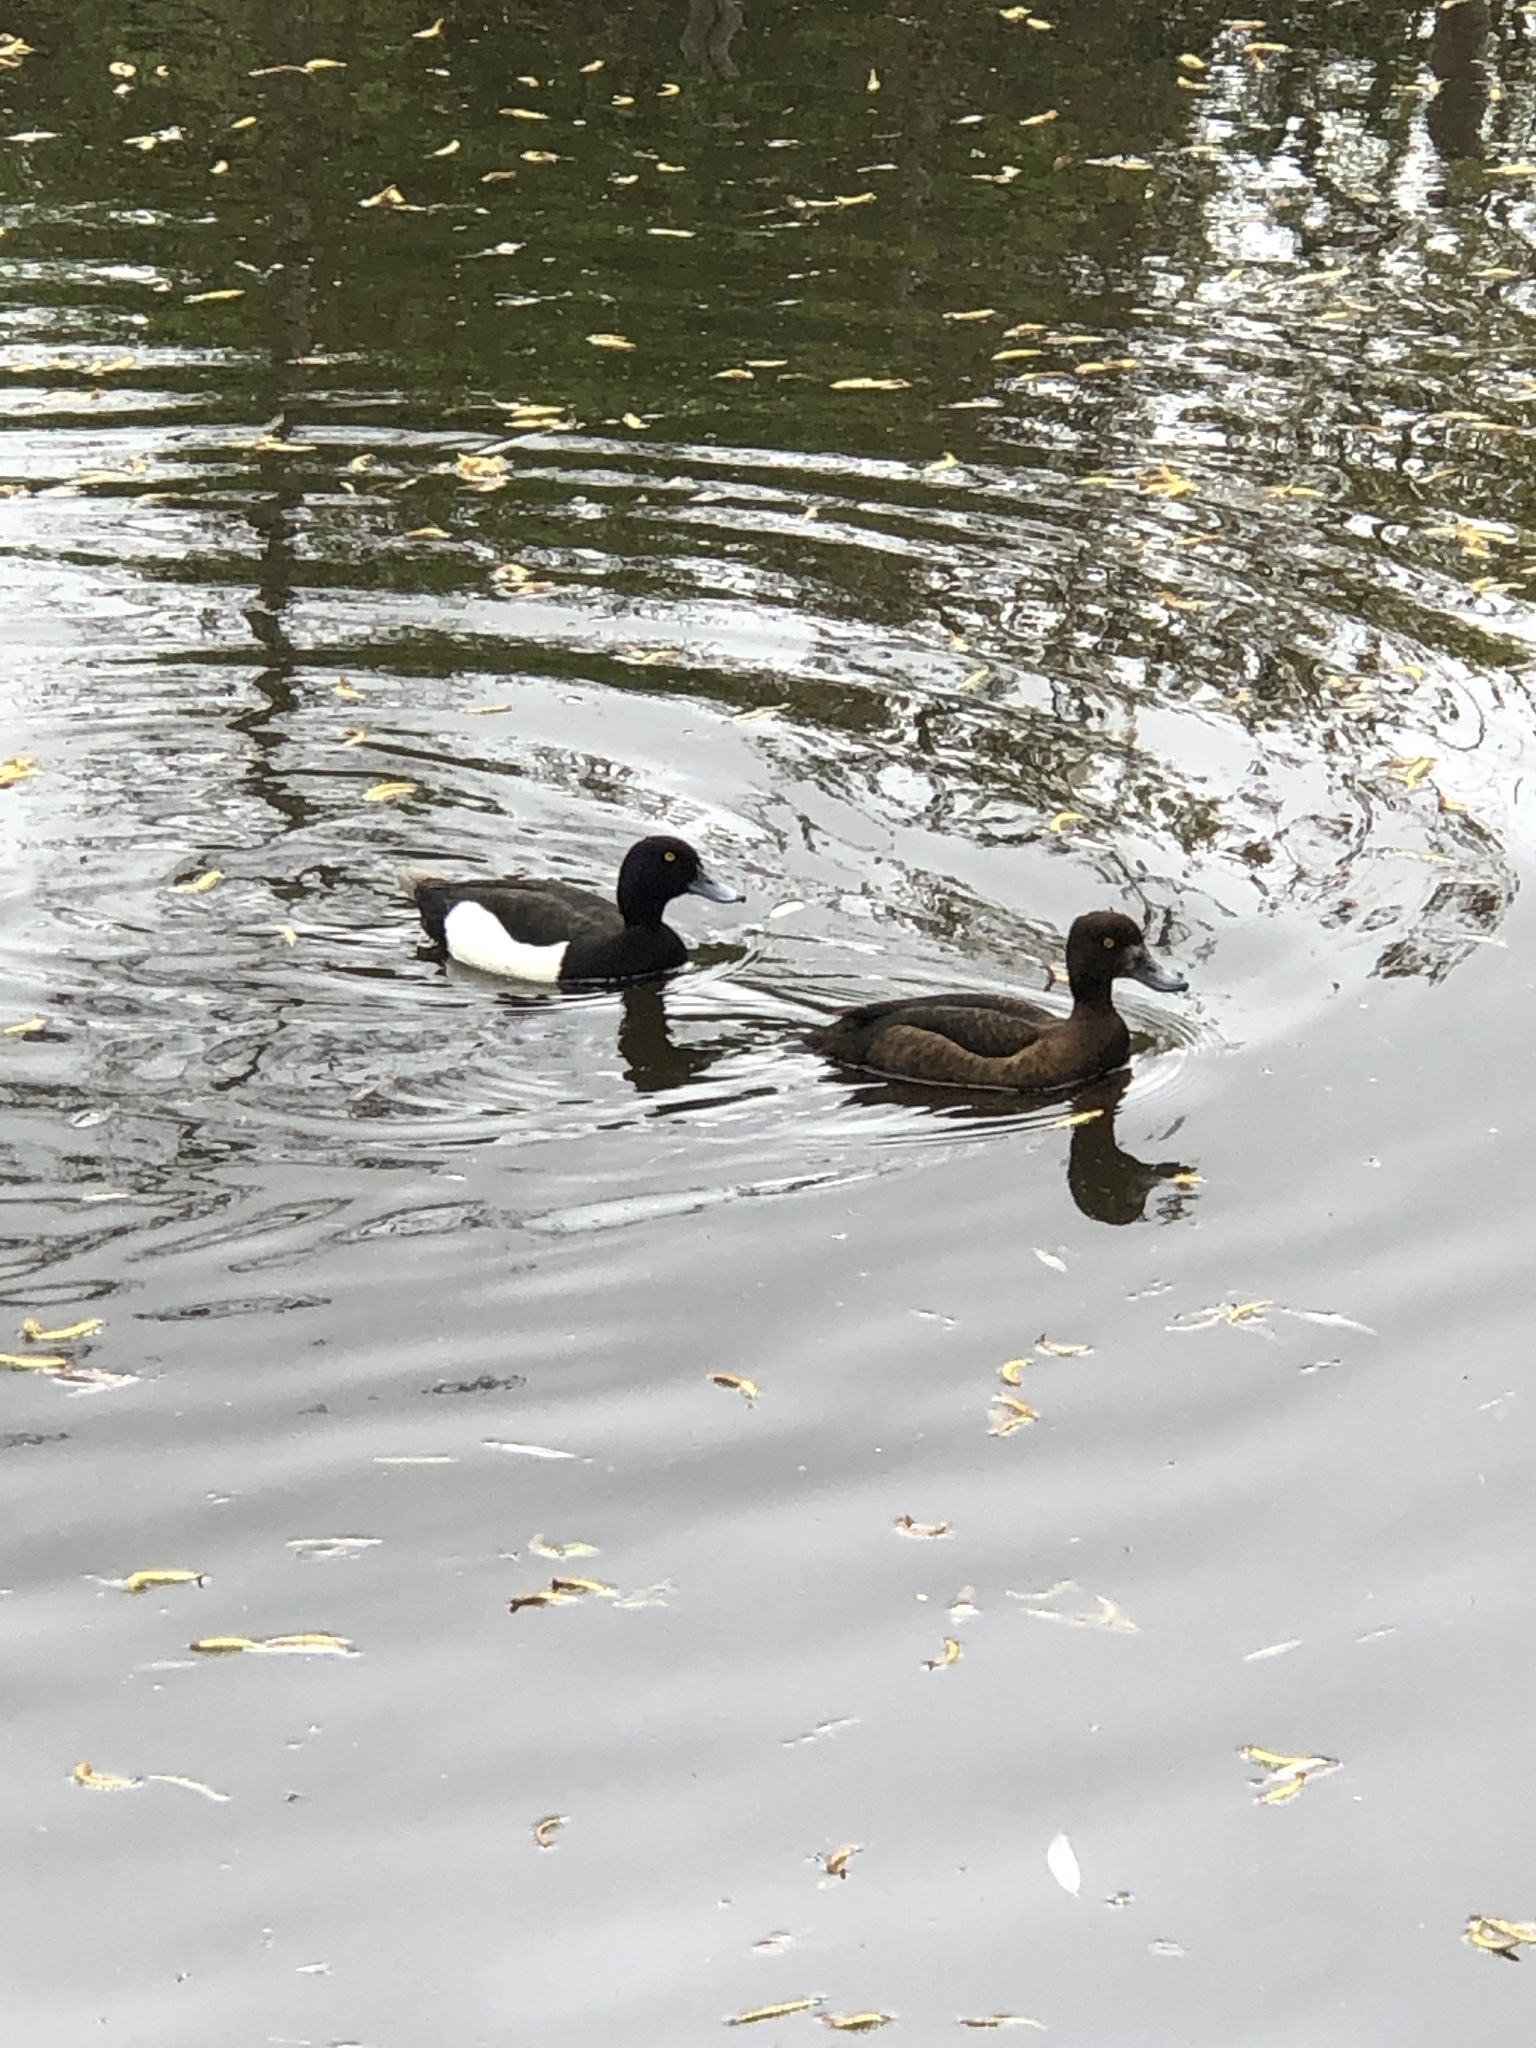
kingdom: Animalia
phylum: Chordata
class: Aves
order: Anseriformes
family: Anatidae
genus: Aythya
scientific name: Aythya fuligula
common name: Tufted duck
